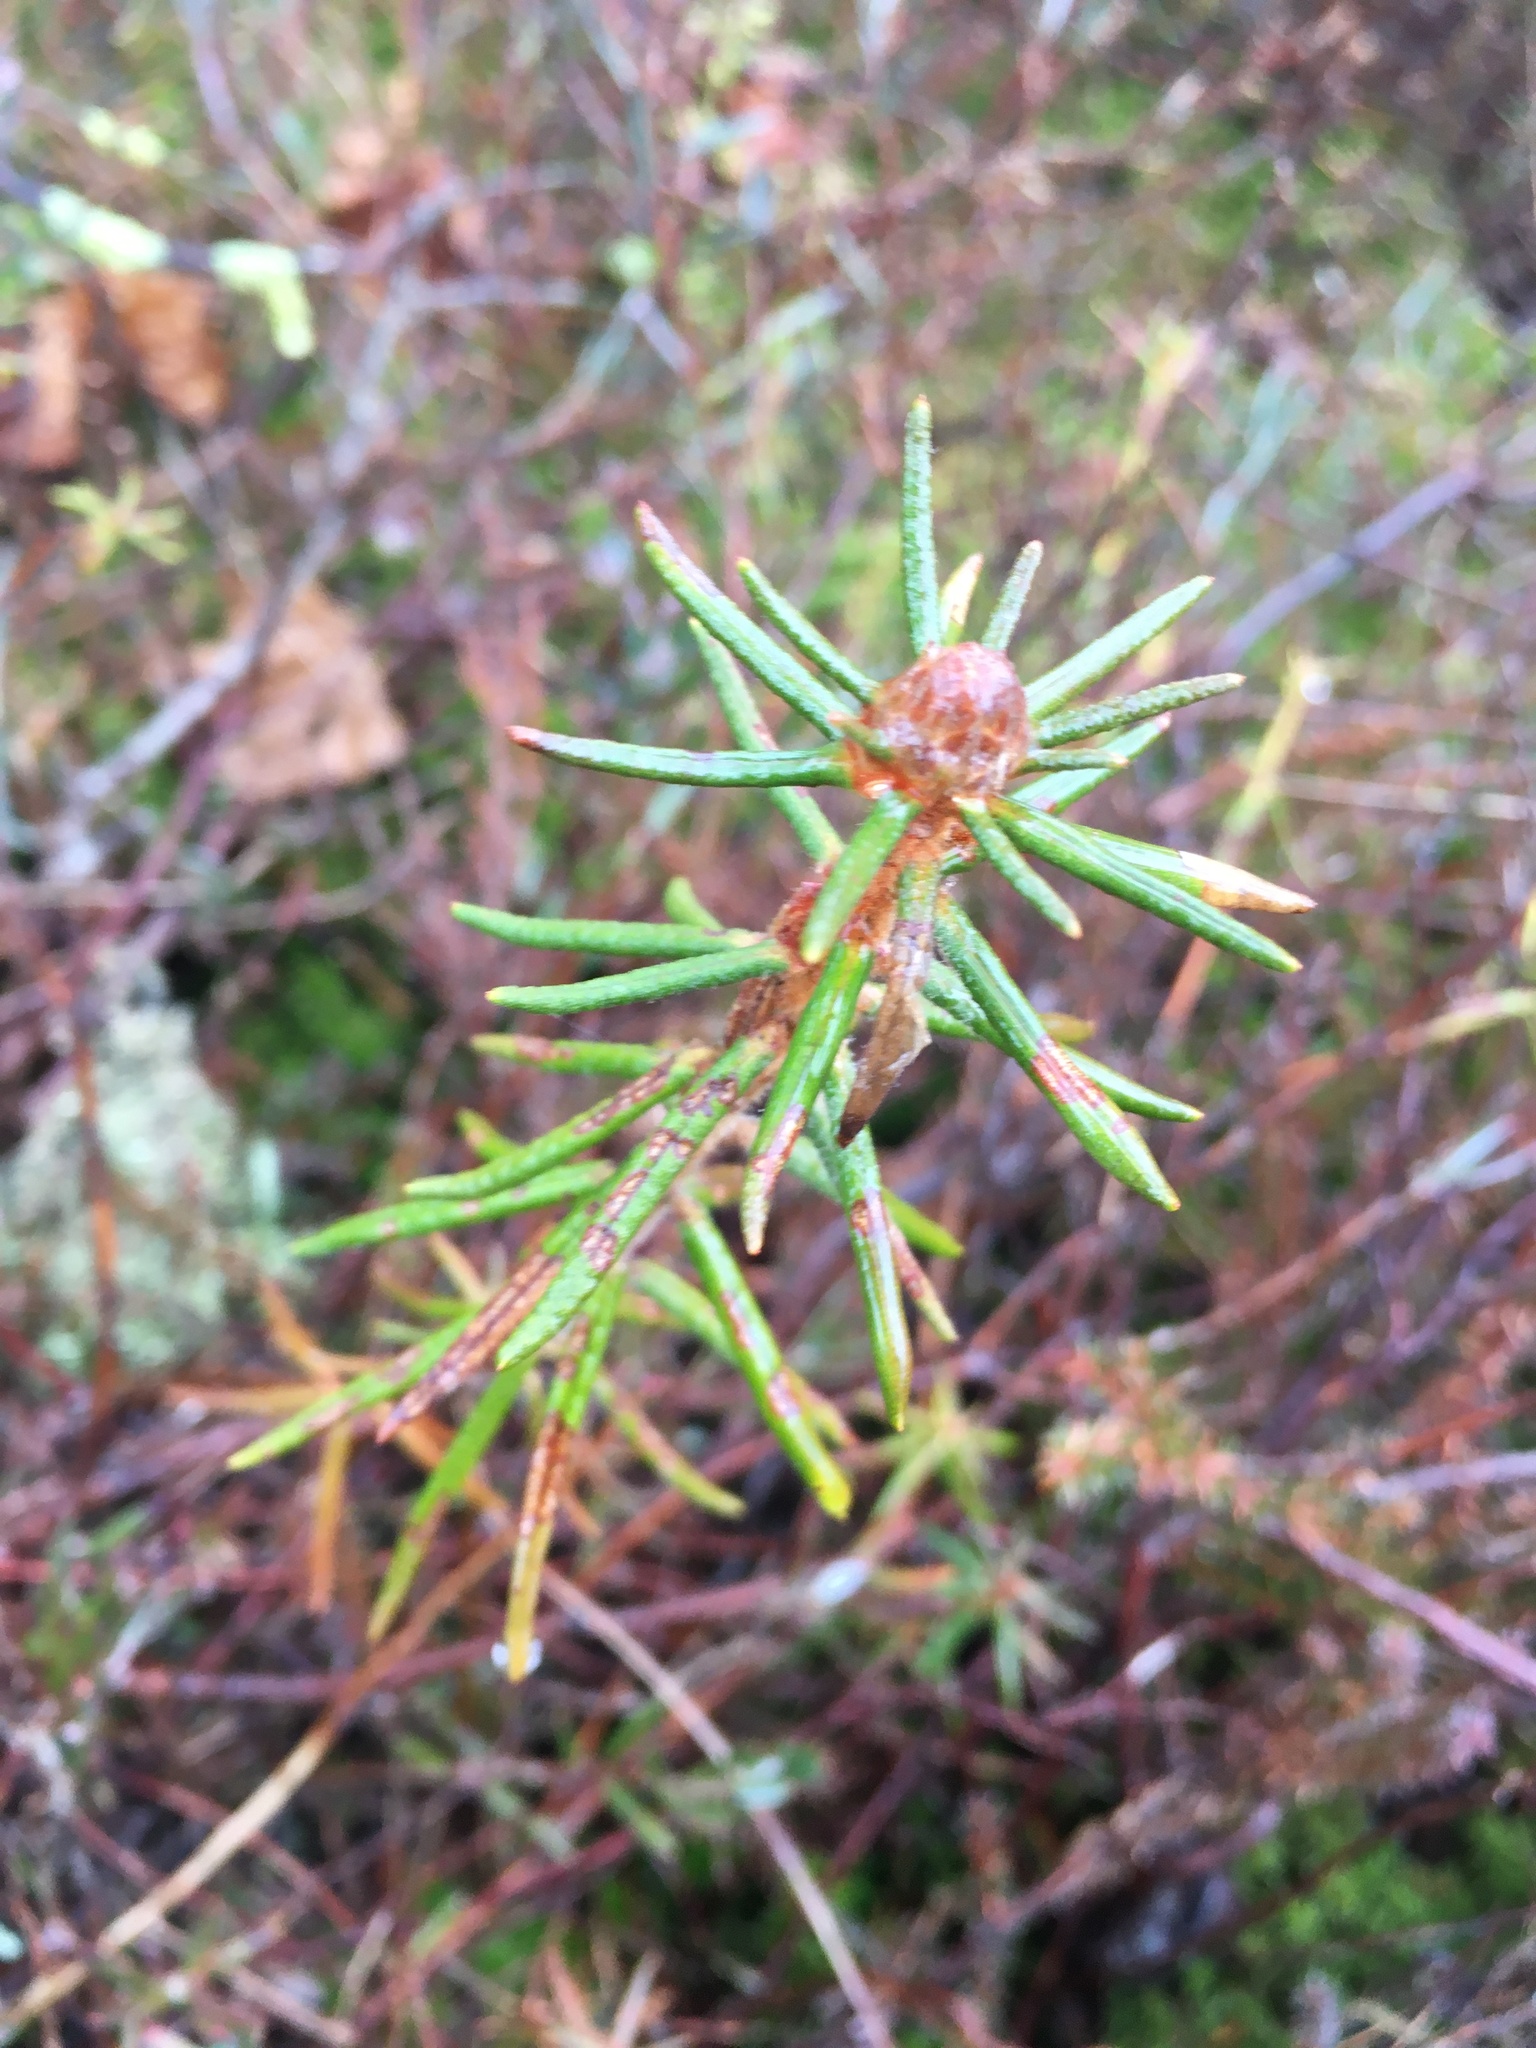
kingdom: Plantae
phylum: Tracheophyta
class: Magnoliopsida
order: Ericales
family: Ericaceae
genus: Rhododendron
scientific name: Rhododendron tomentosum
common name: Marsh labrador tea
